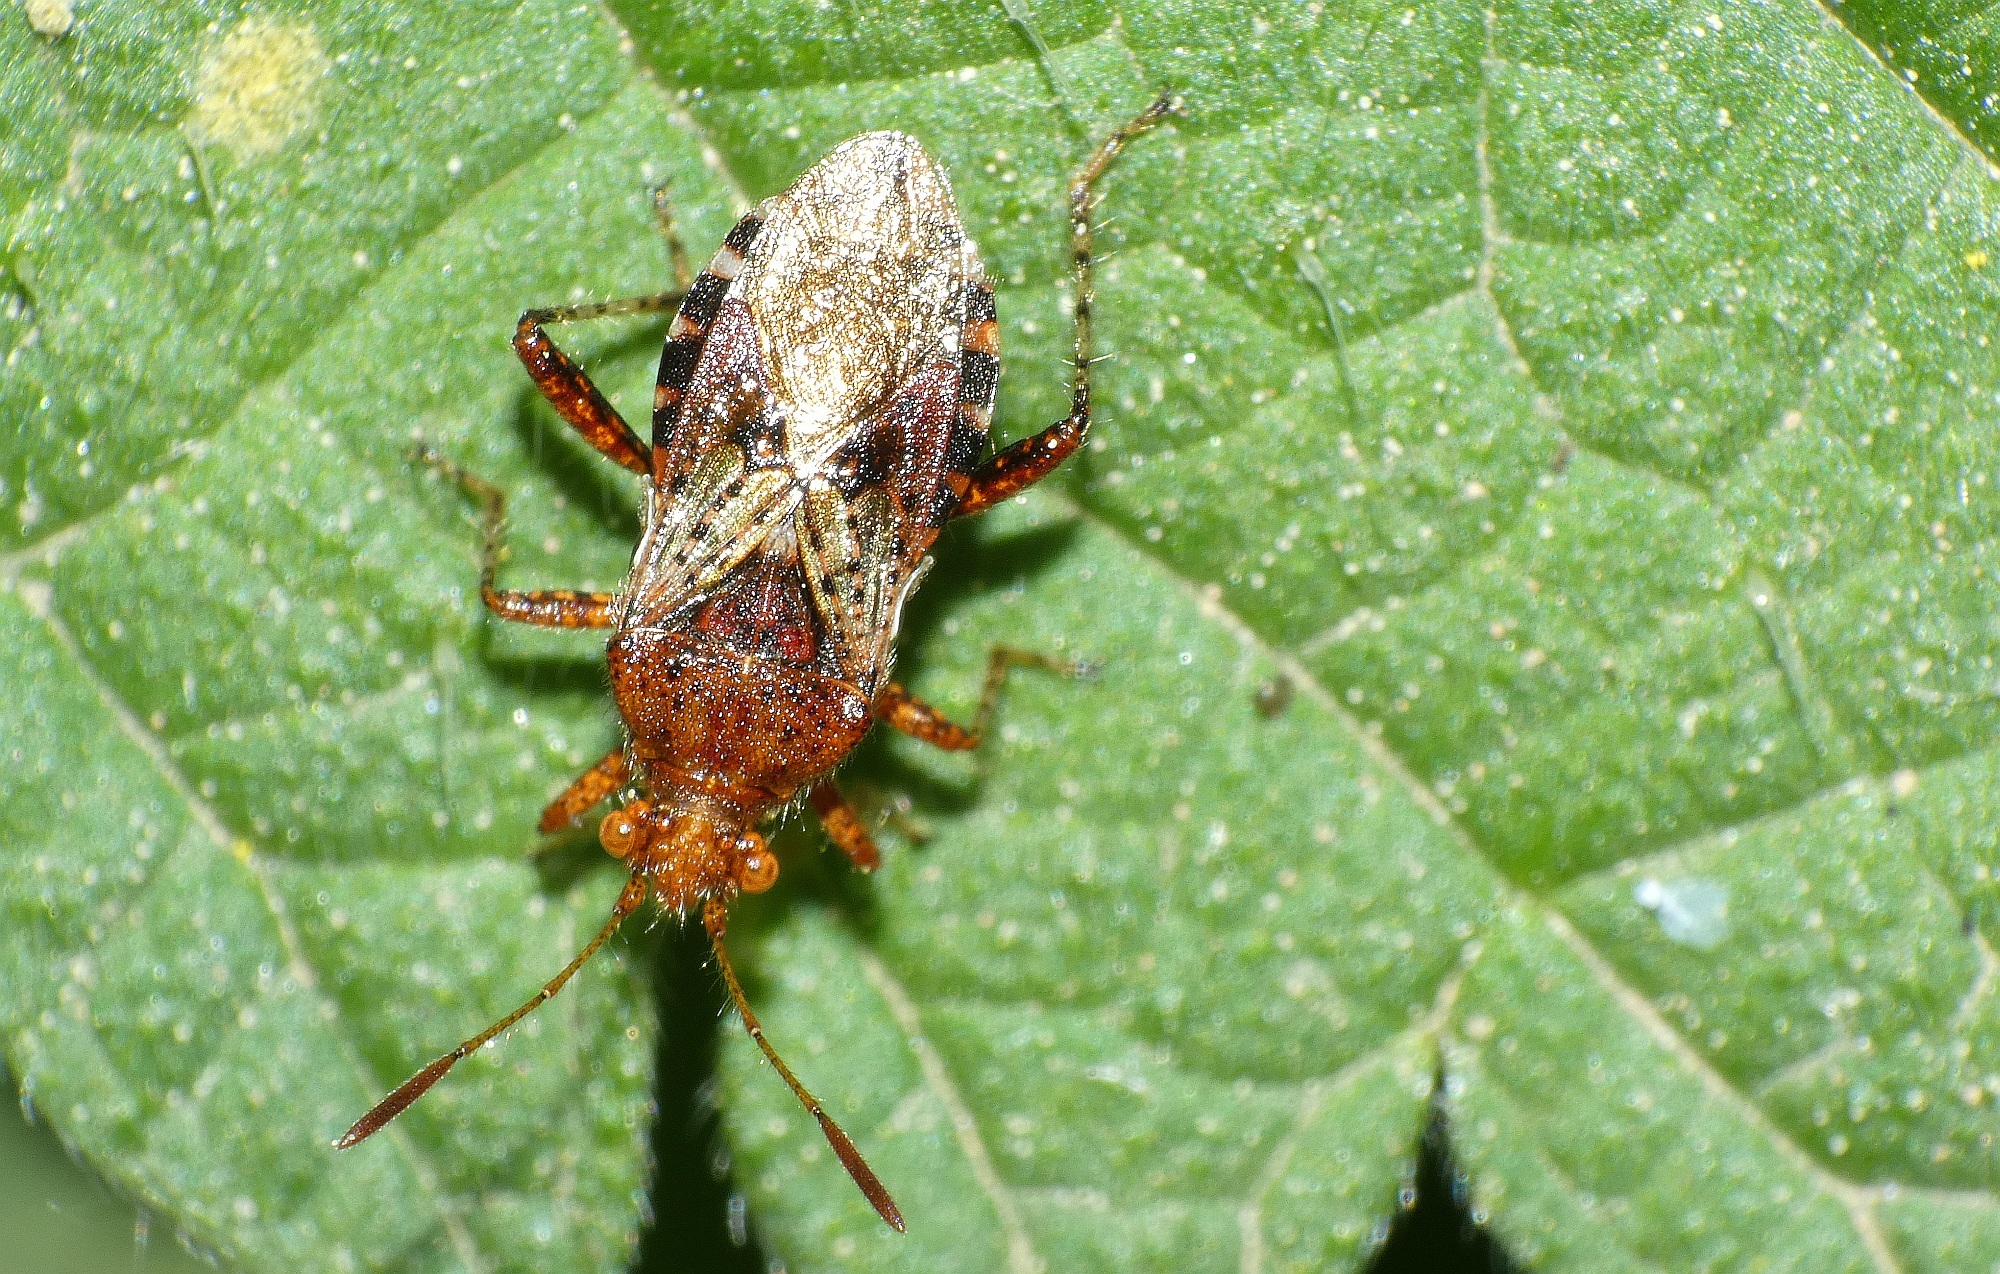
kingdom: Animalia
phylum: Arthropoda
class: Insecta
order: Hemiptera
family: Rhopalidae
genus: Rhopalus
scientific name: Rhopalus subrufus
